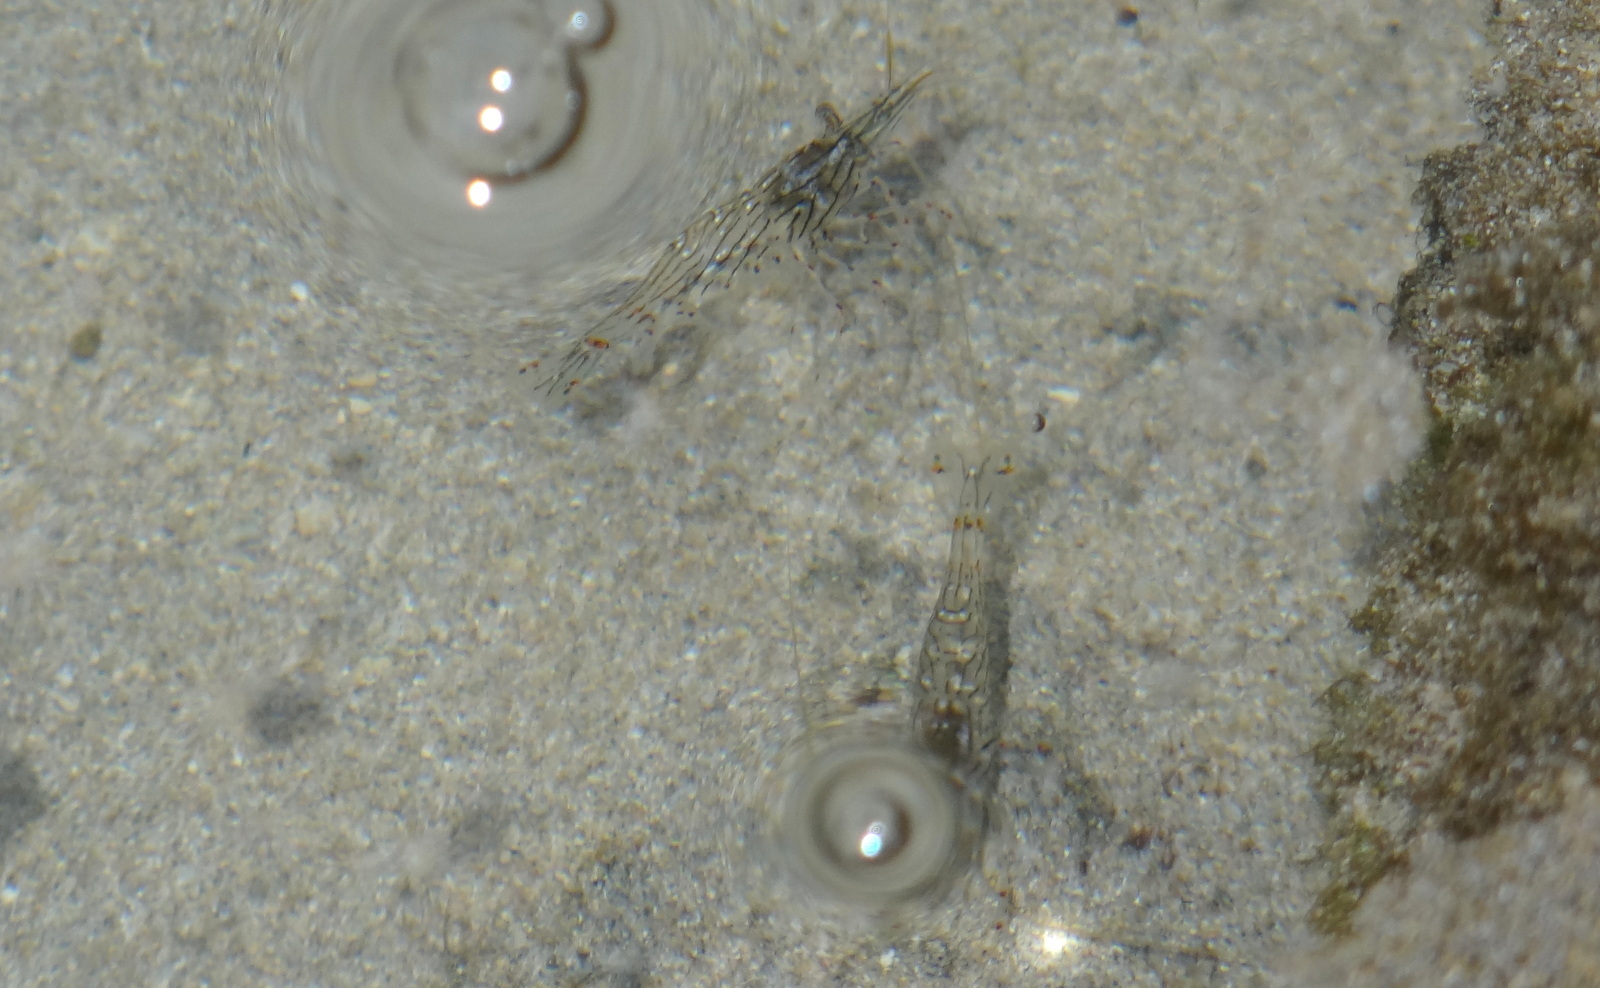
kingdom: Animalia
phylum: Arthropoda
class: Malacostraca
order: Decapoda
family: Palaemonidae
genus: Palaemon
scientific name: Palaemon ritteri
